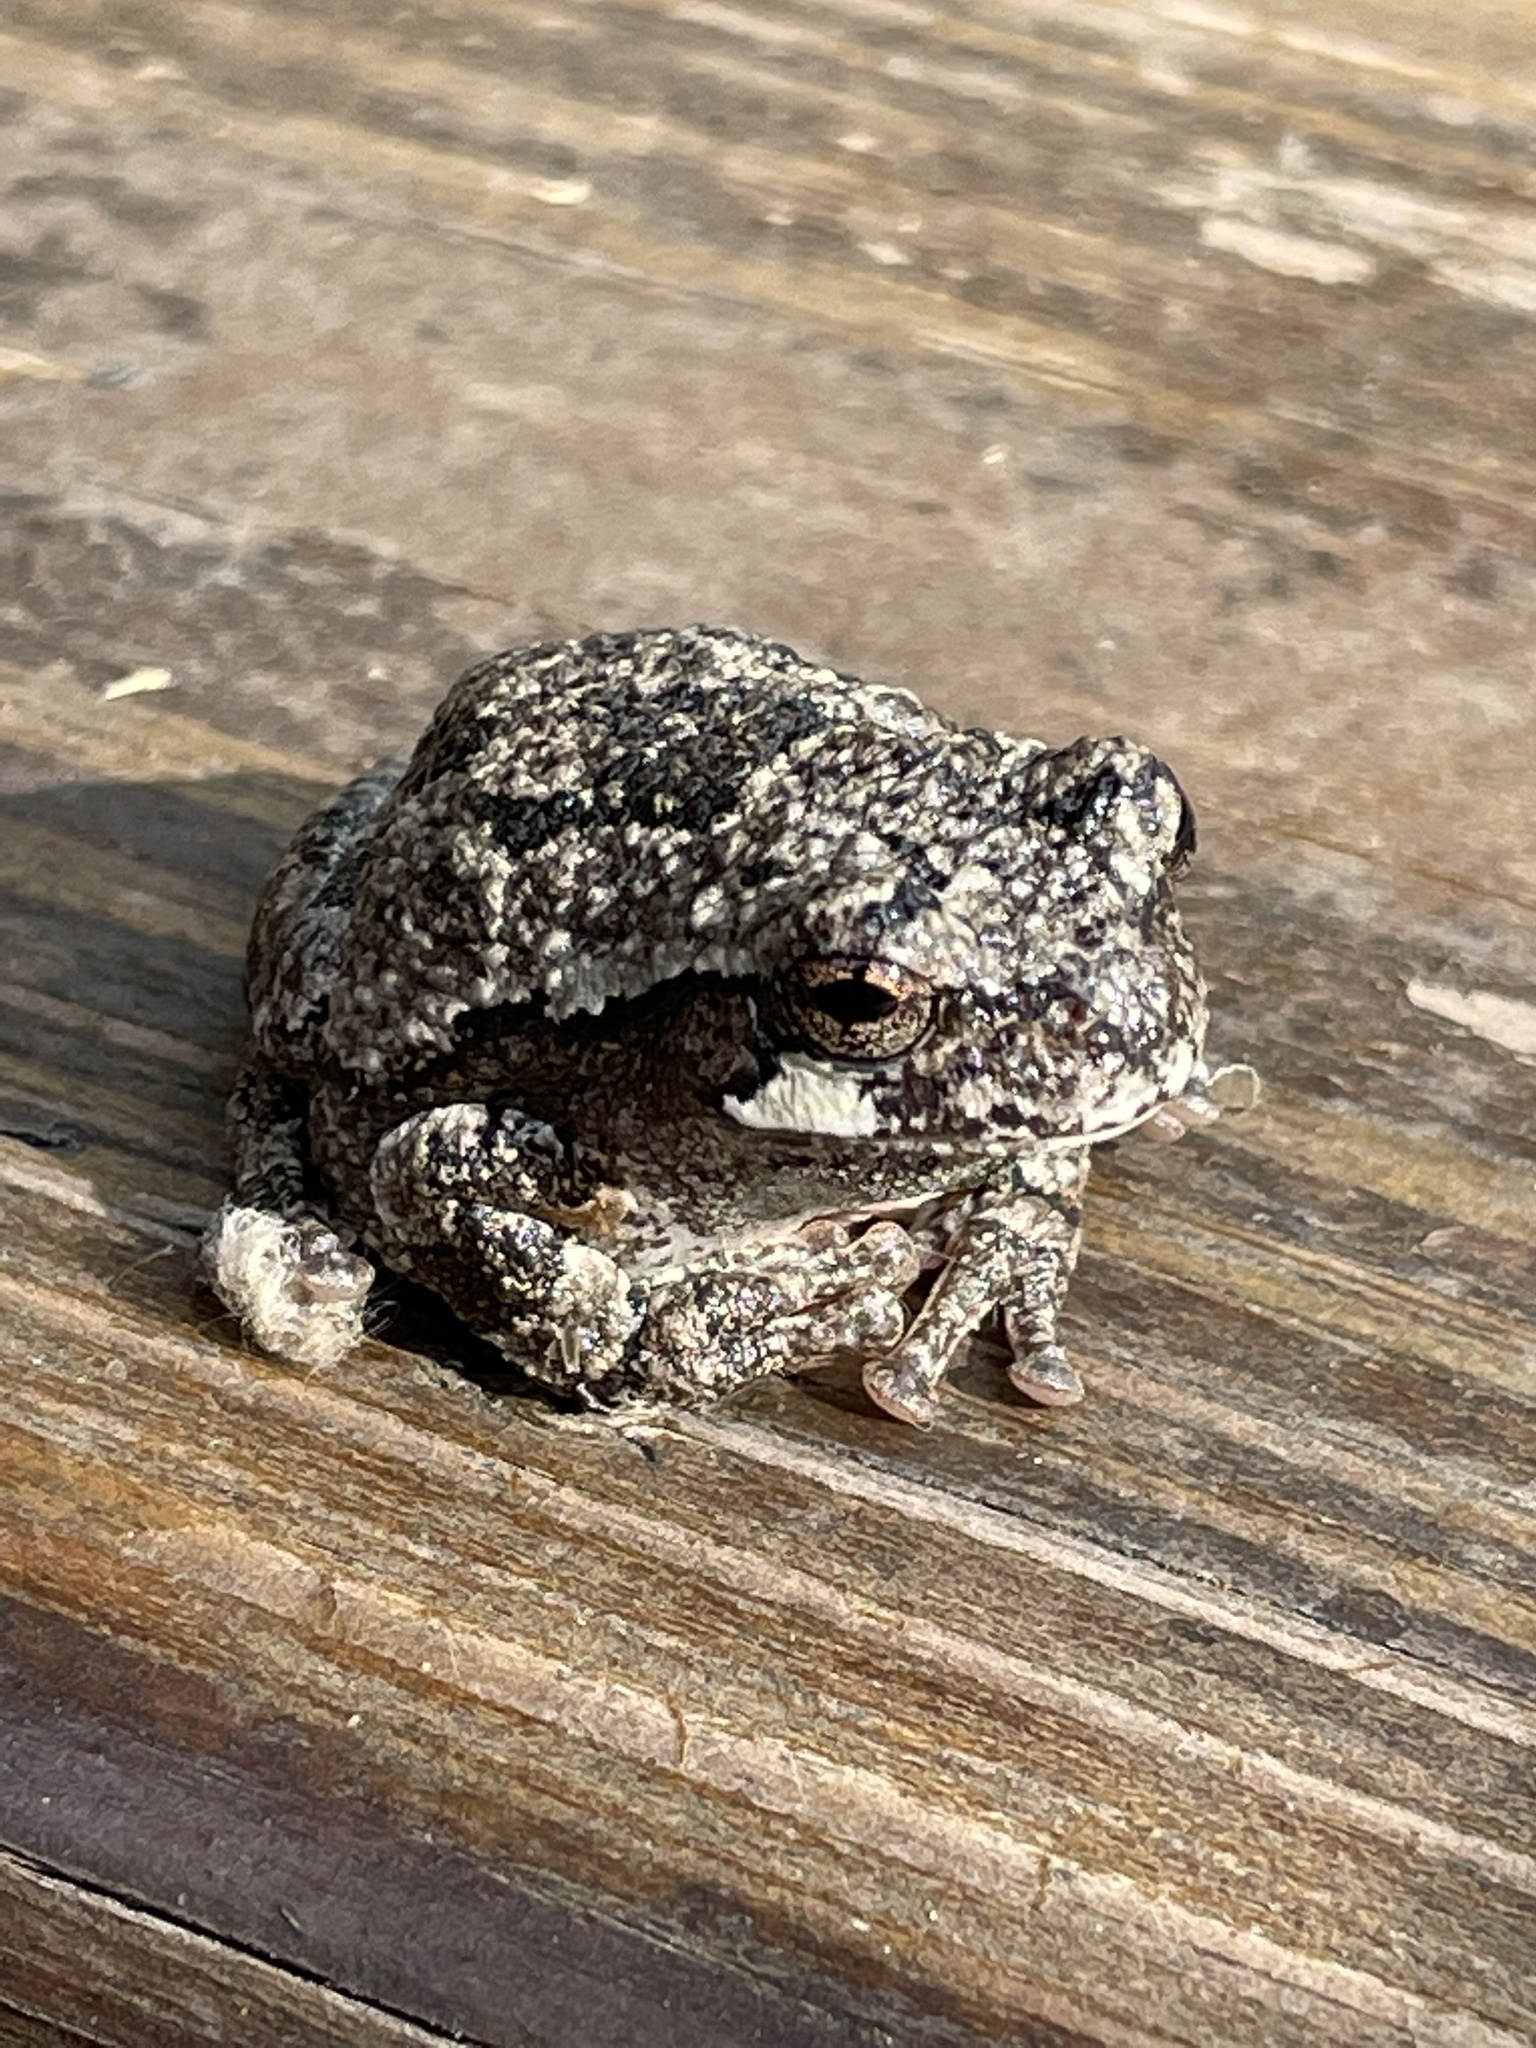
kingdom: Animalia
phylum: Chordata
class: Amphibia
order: Anura
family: Hylidae
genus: Hyla
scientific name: Hyla
